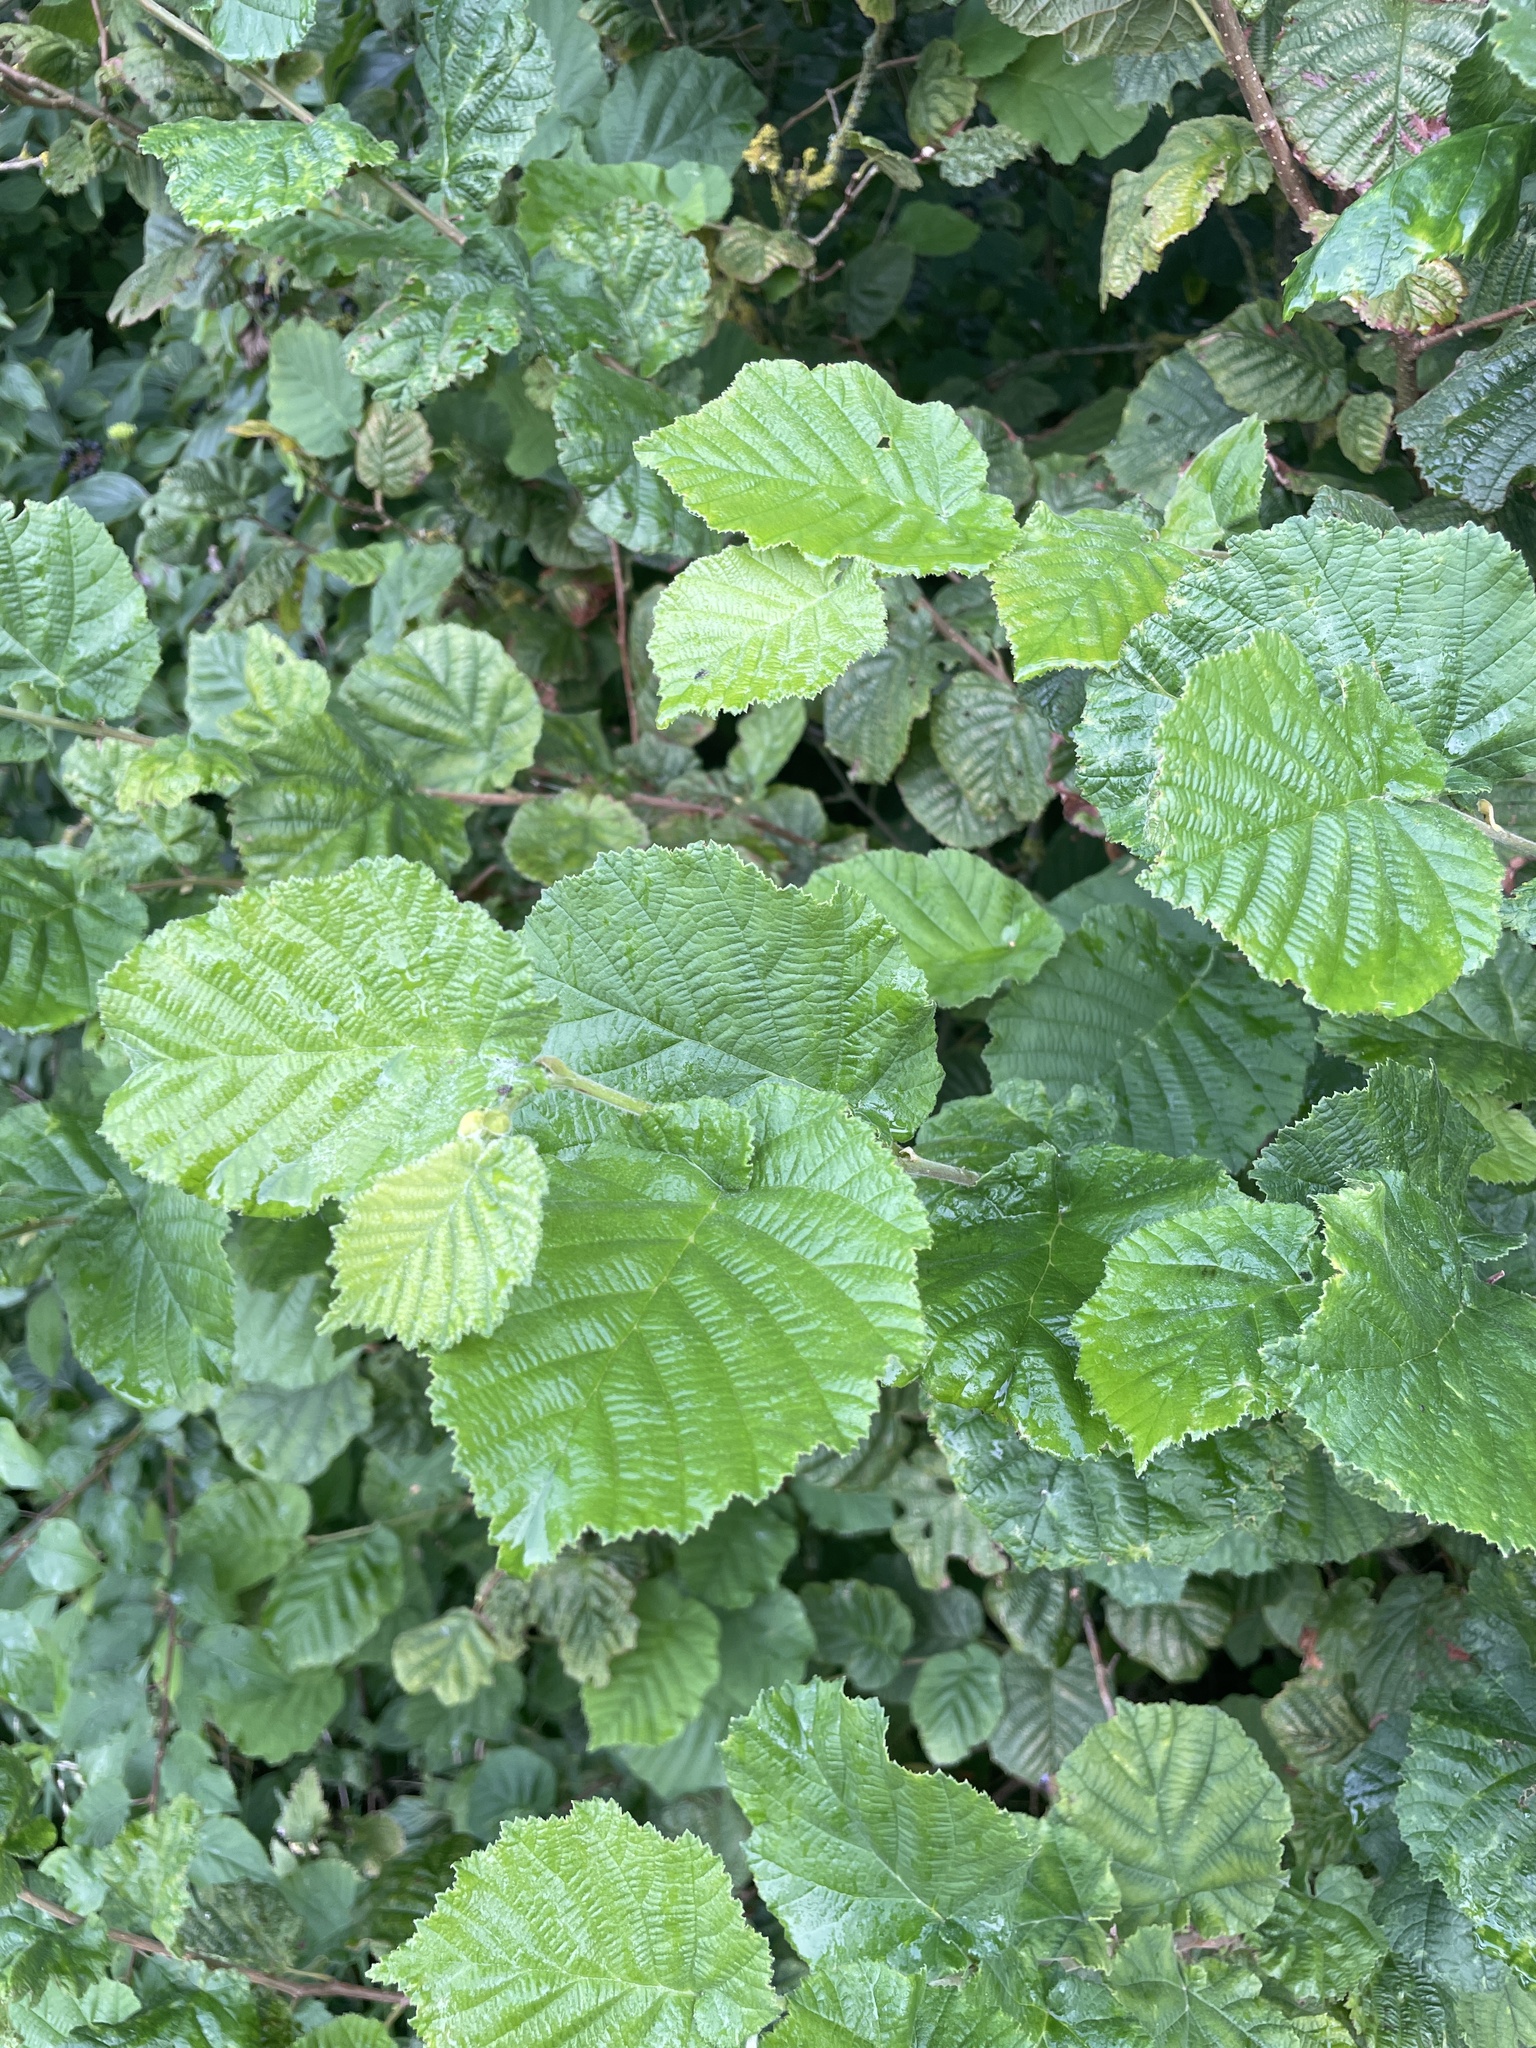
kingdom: Plantae
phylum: Tracheophyta
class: Magnoliopsida
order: Fagales
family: Betulaceae
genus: Corylus
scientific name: Corylus avellana
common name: European hazel
